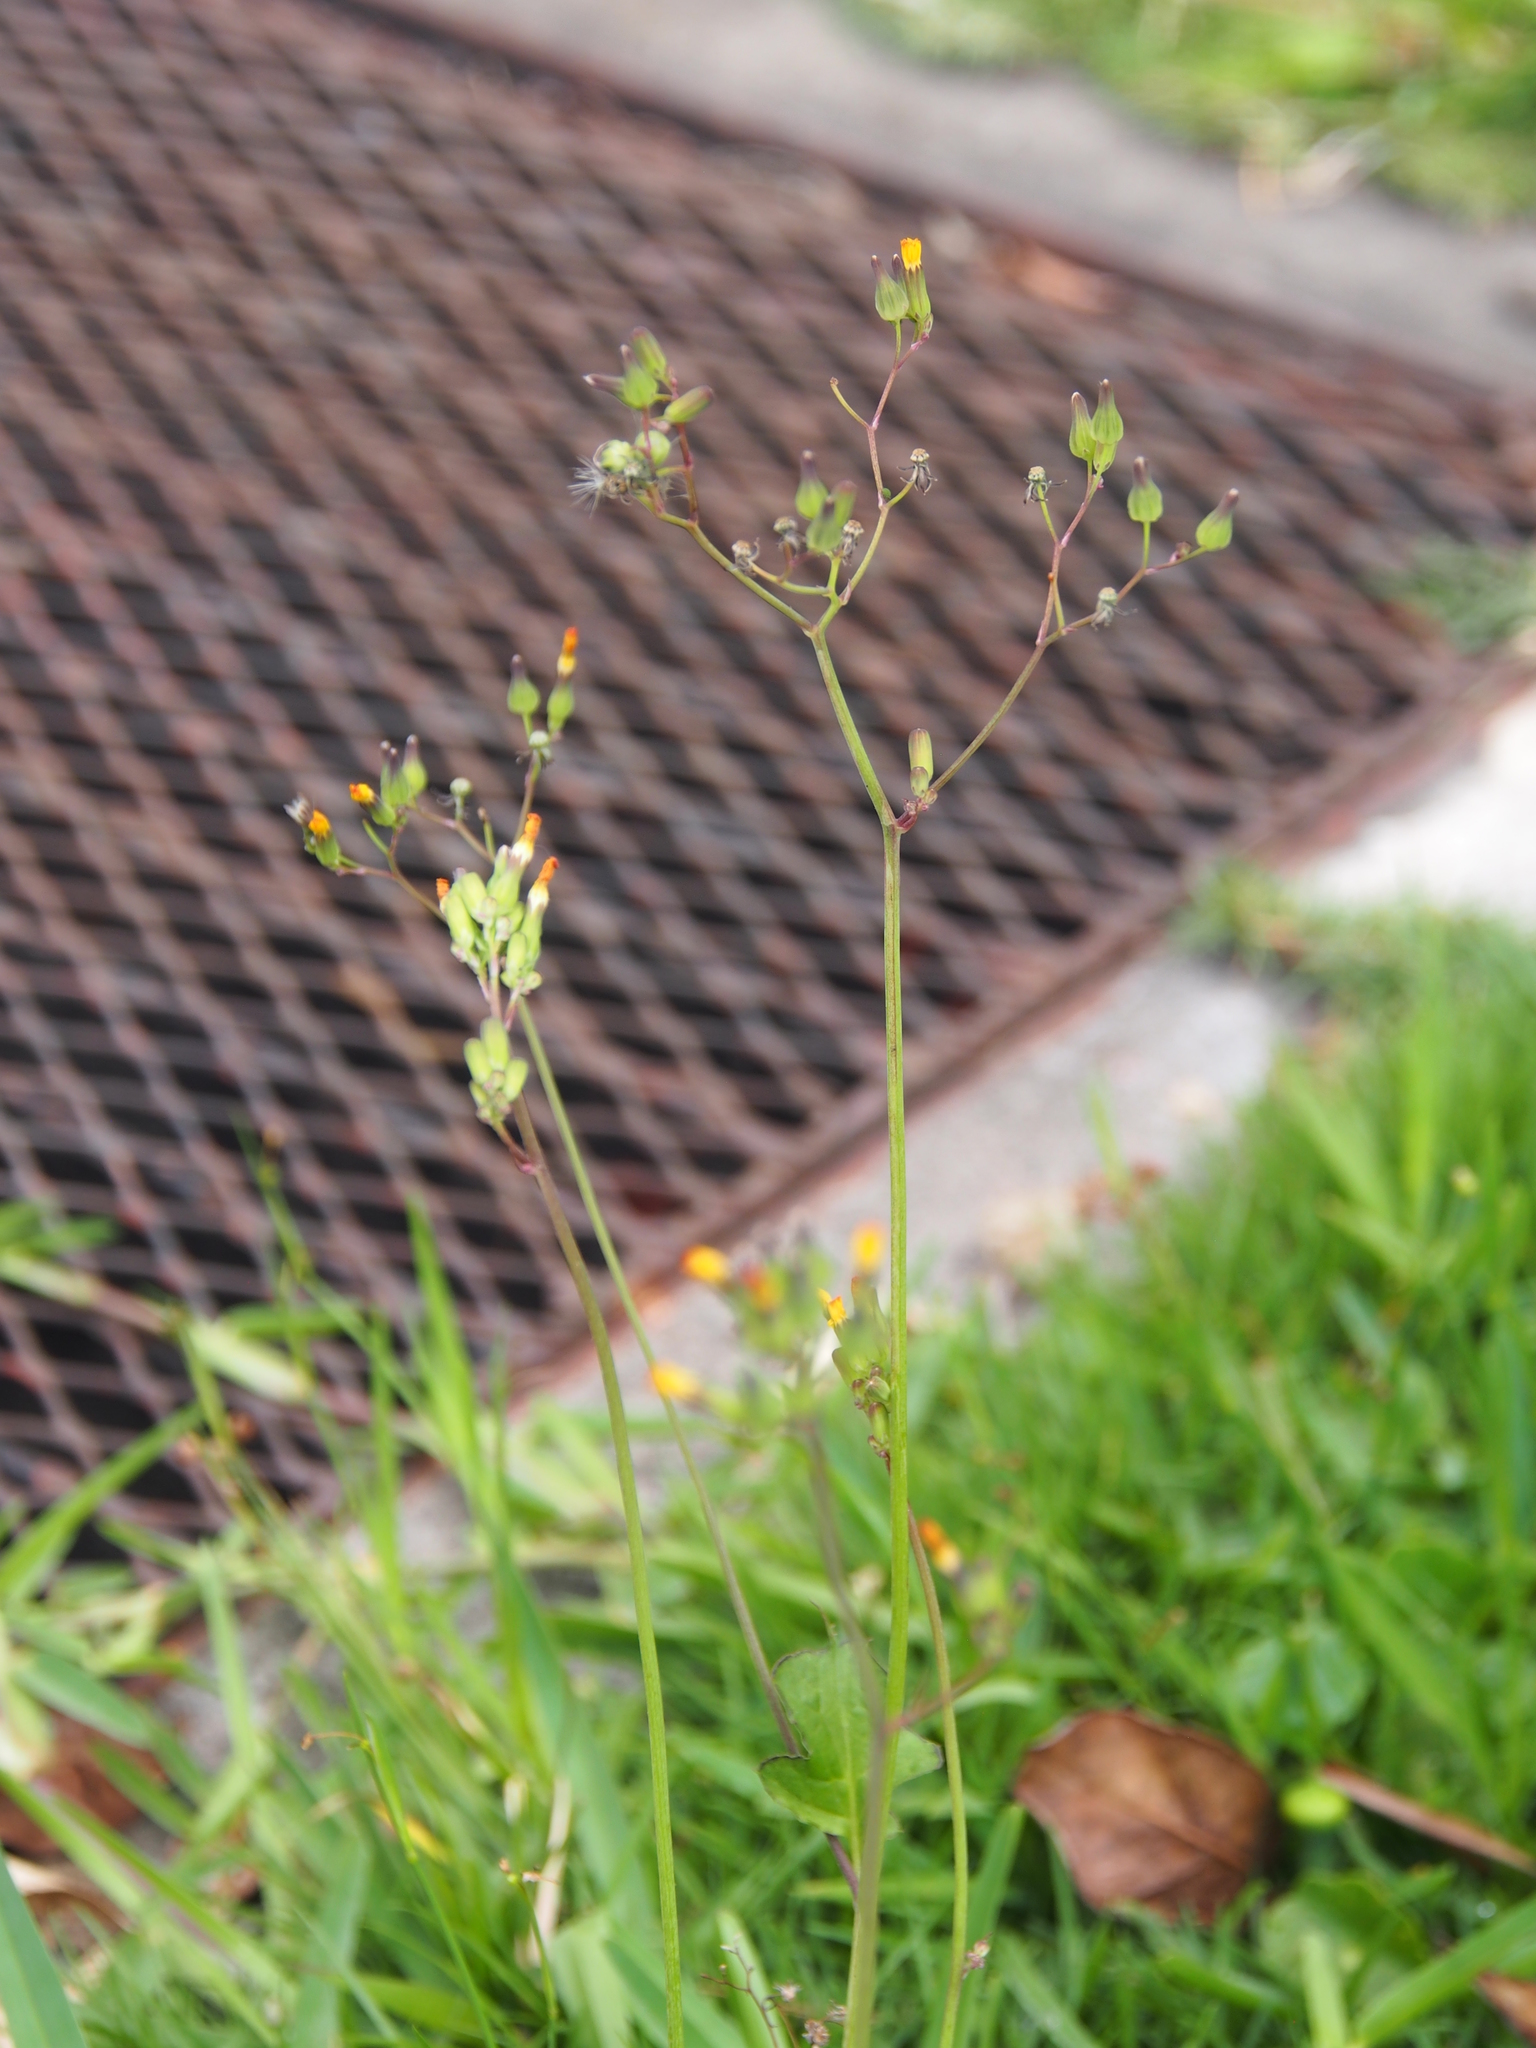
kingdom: Plantae
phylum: Tracheophyta
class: Magnoliopsida
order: Asterales
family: Asteraceae
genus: Youngia
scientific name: Youngia japonica
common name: Oriental false hawksbeard
